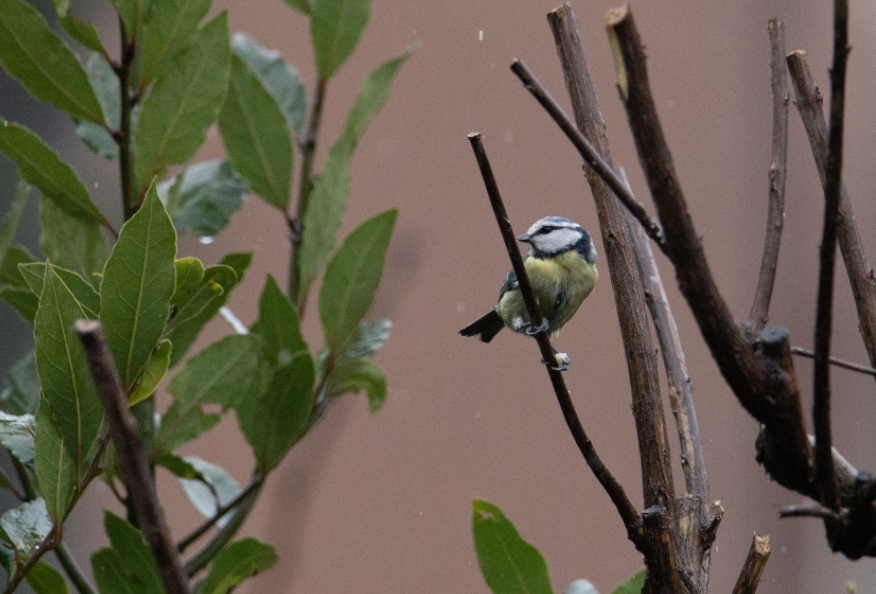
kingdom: Animalia
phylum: Chordata
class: Aves
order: Passeriformes
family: Paridae
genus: Cyanistes
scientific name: Cyanistes caeruleus
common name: Eurasian blue tit
